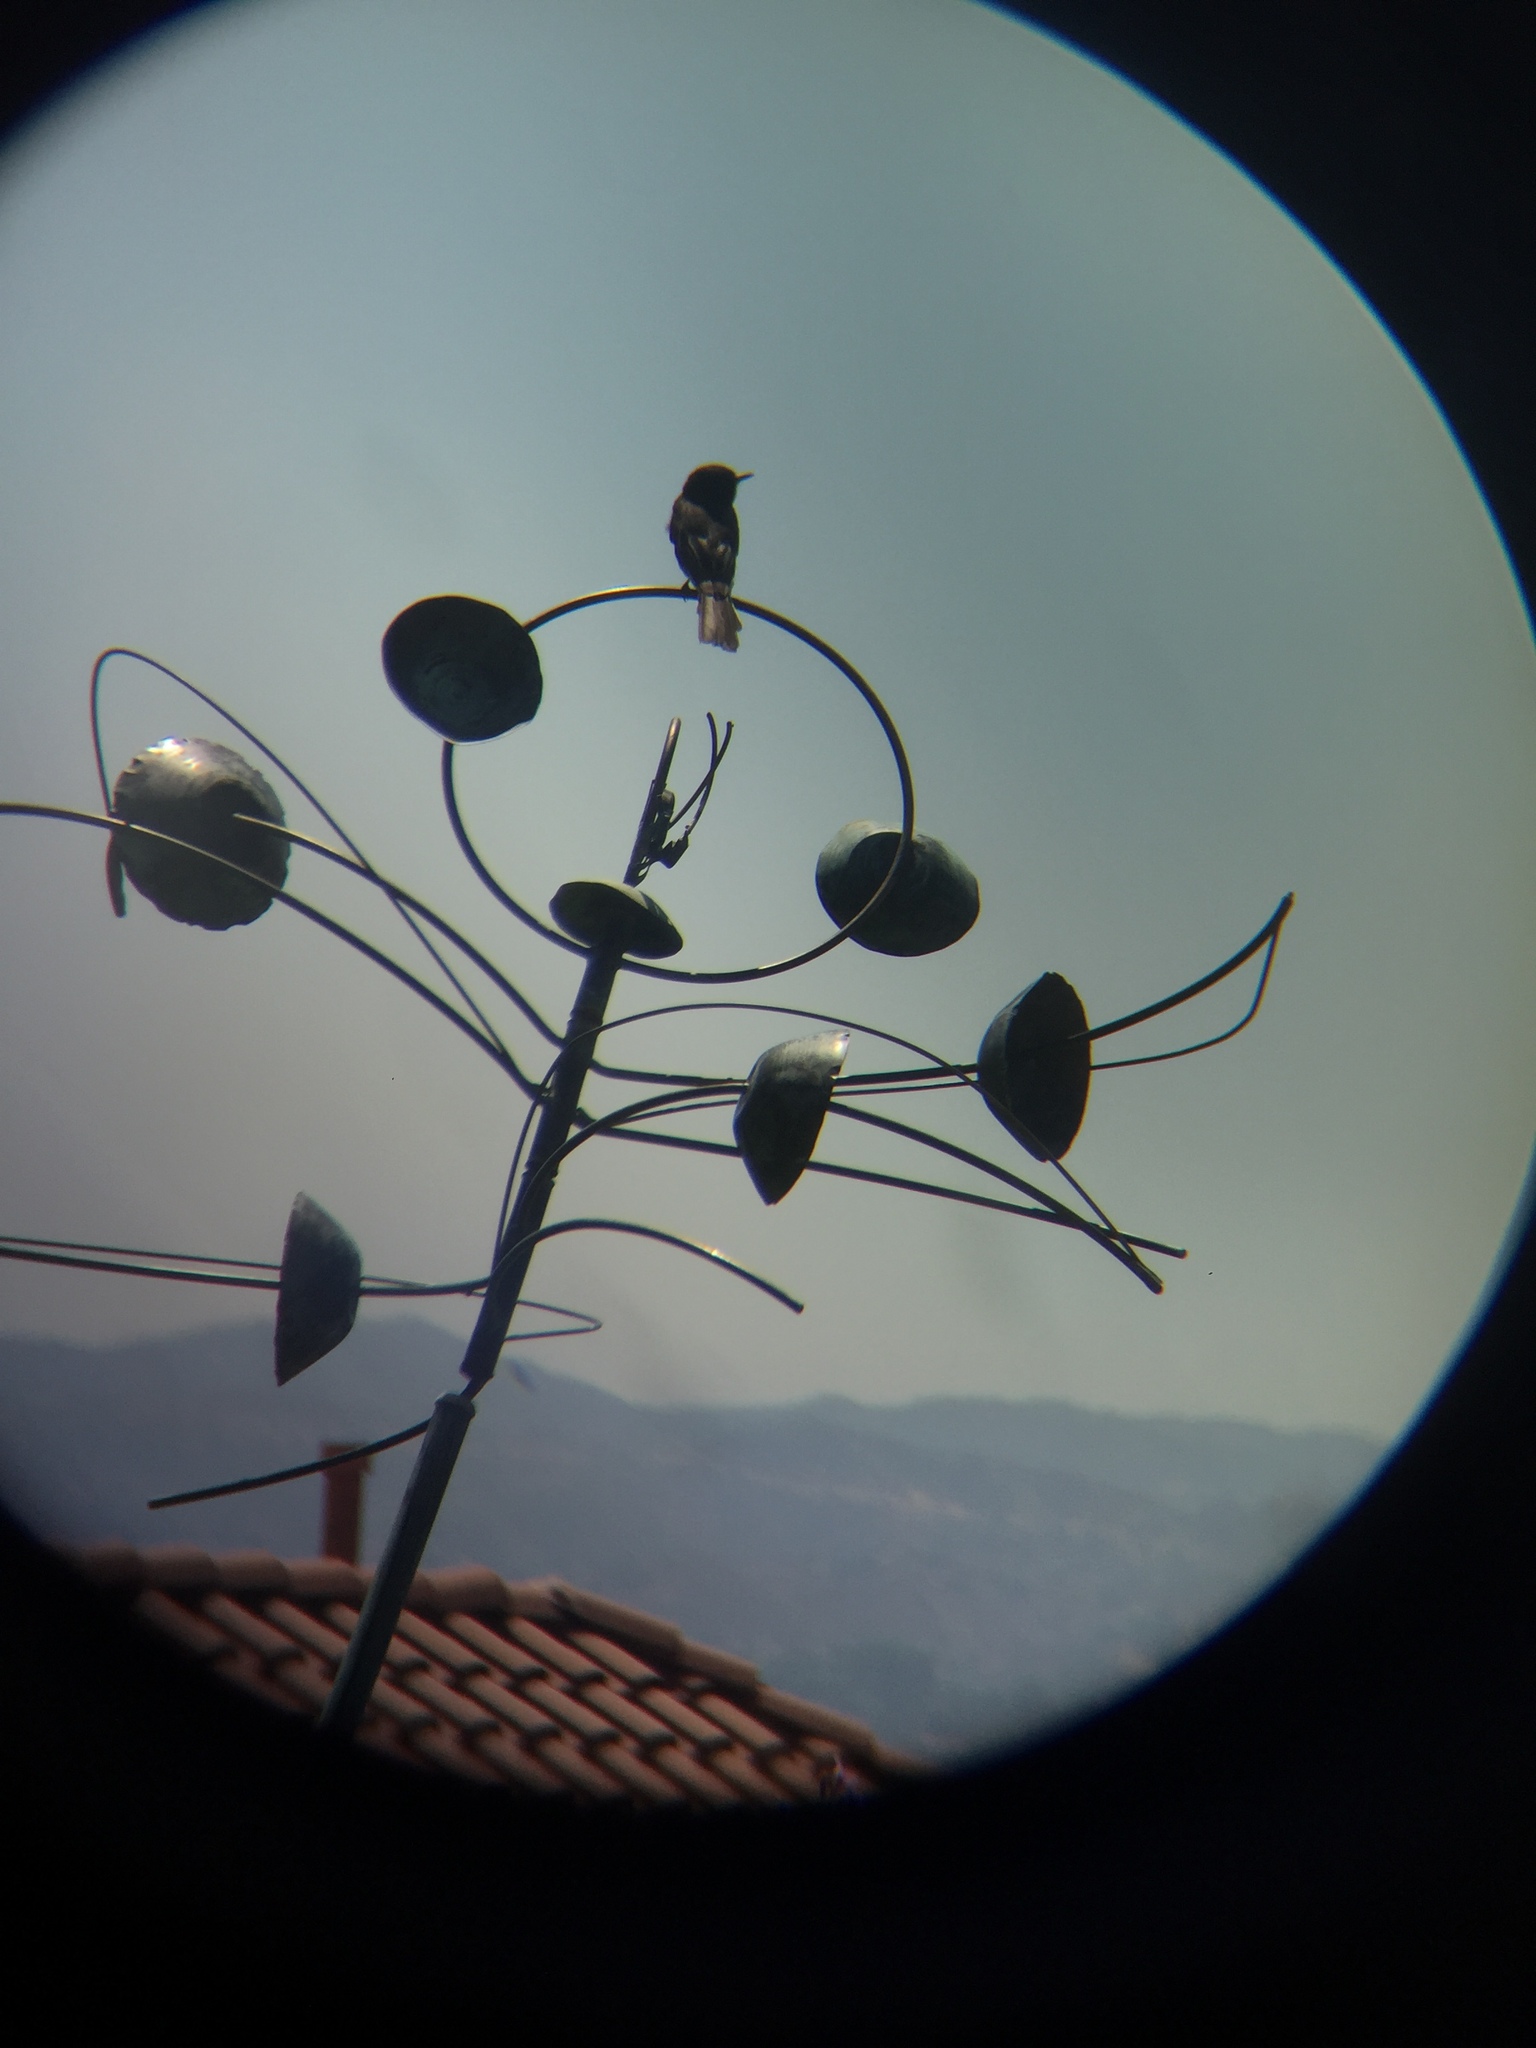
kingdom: Animalia
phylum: Chordata
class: Aves
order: Passeriformes
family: Tyrannidae
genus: Sayornis
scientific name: Sayornis nigricans
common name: Black phoebe
